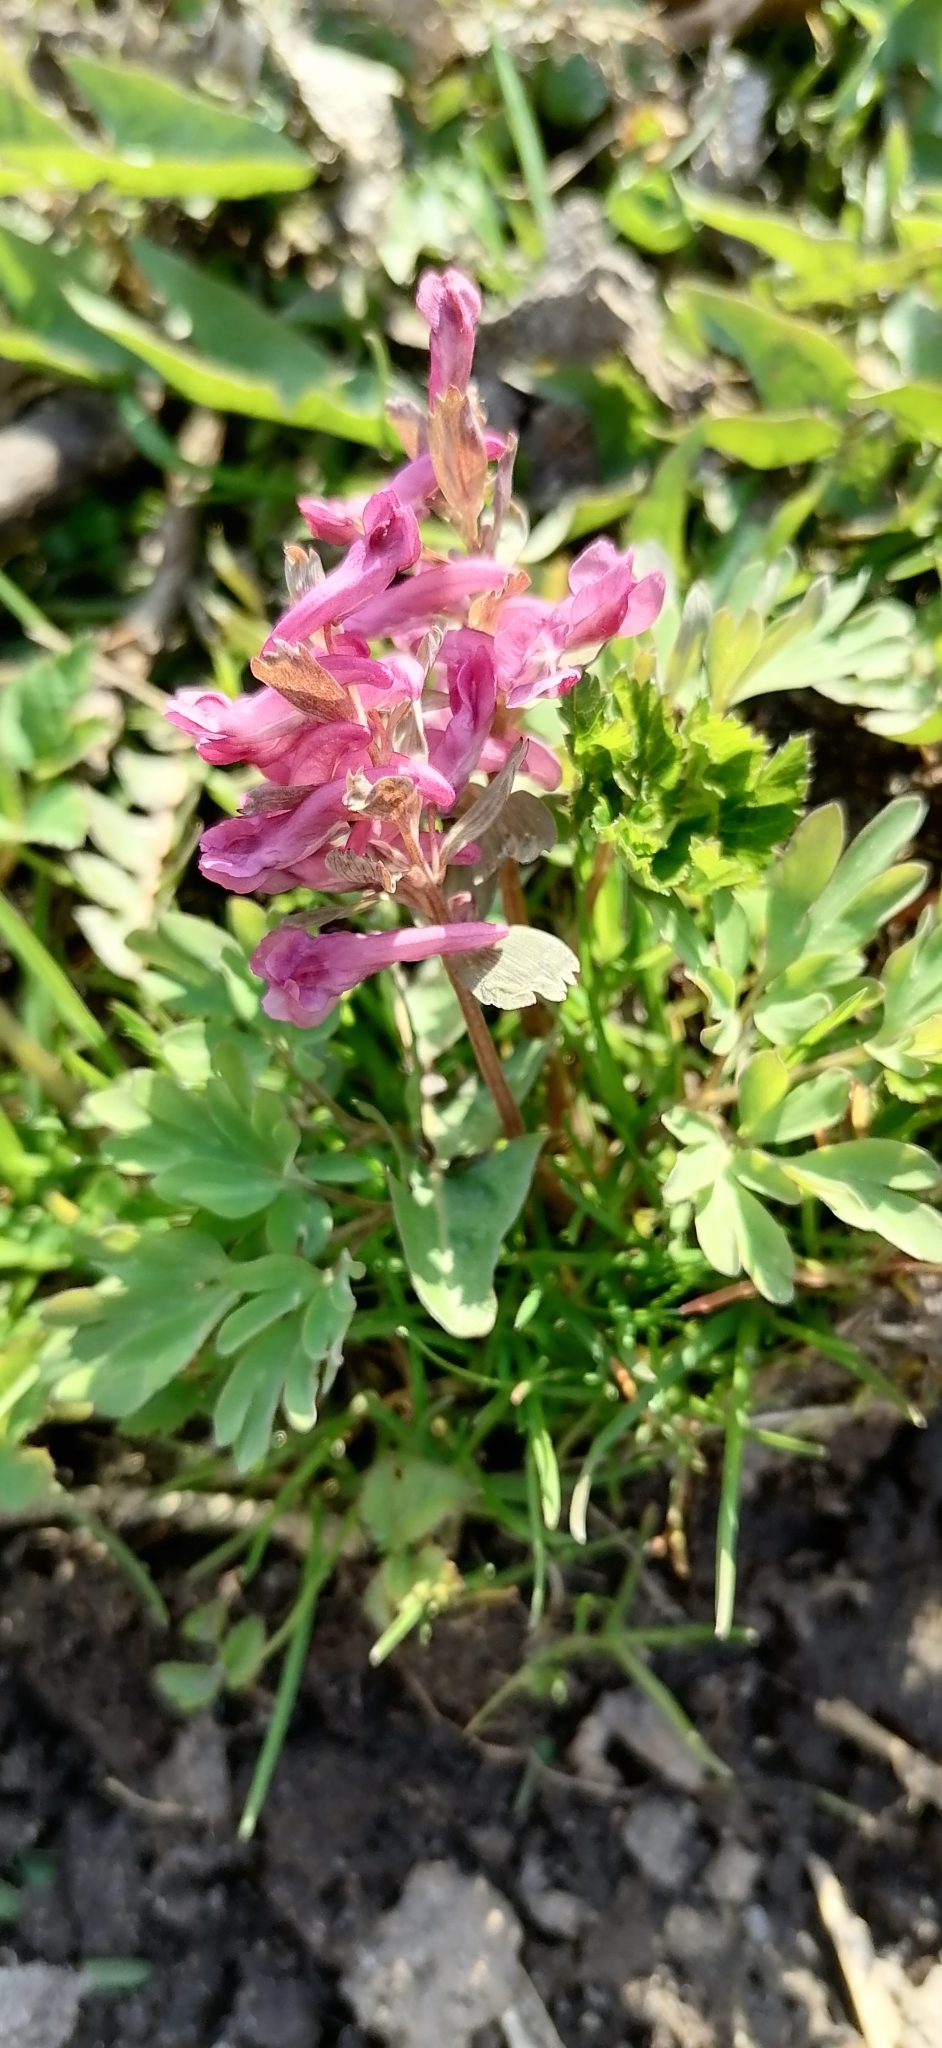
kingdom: Plantae
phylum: Tracheophyta
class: Magnoliopsida
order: Ranunculales
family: Papaveraceae
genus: Corydalis
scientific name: Corydalis solida
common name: Bird-in-a-bush
